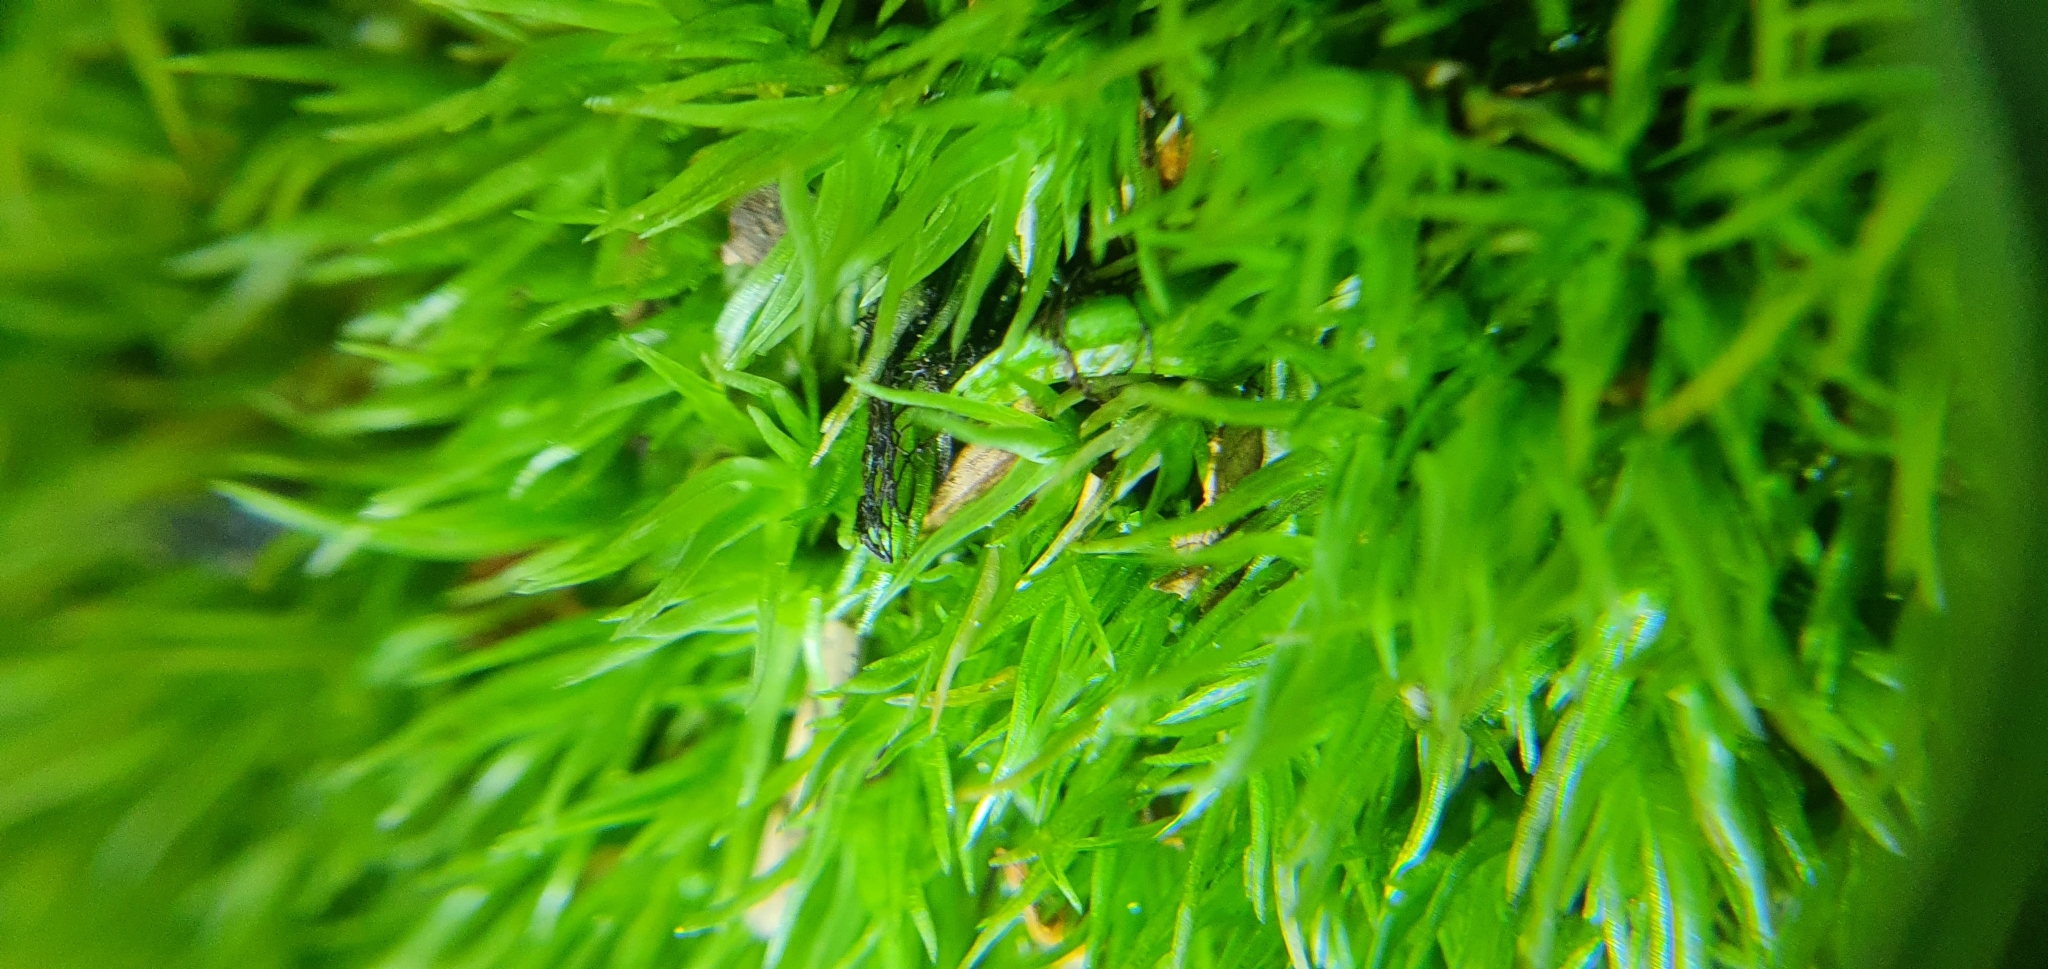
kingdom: Plantae
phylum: Bryophyta
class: Bryopsida
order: Dicranales
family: Leucobryaceae
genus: Leucobryum
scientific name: Leucobryum glaucum
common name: Large white-moss
